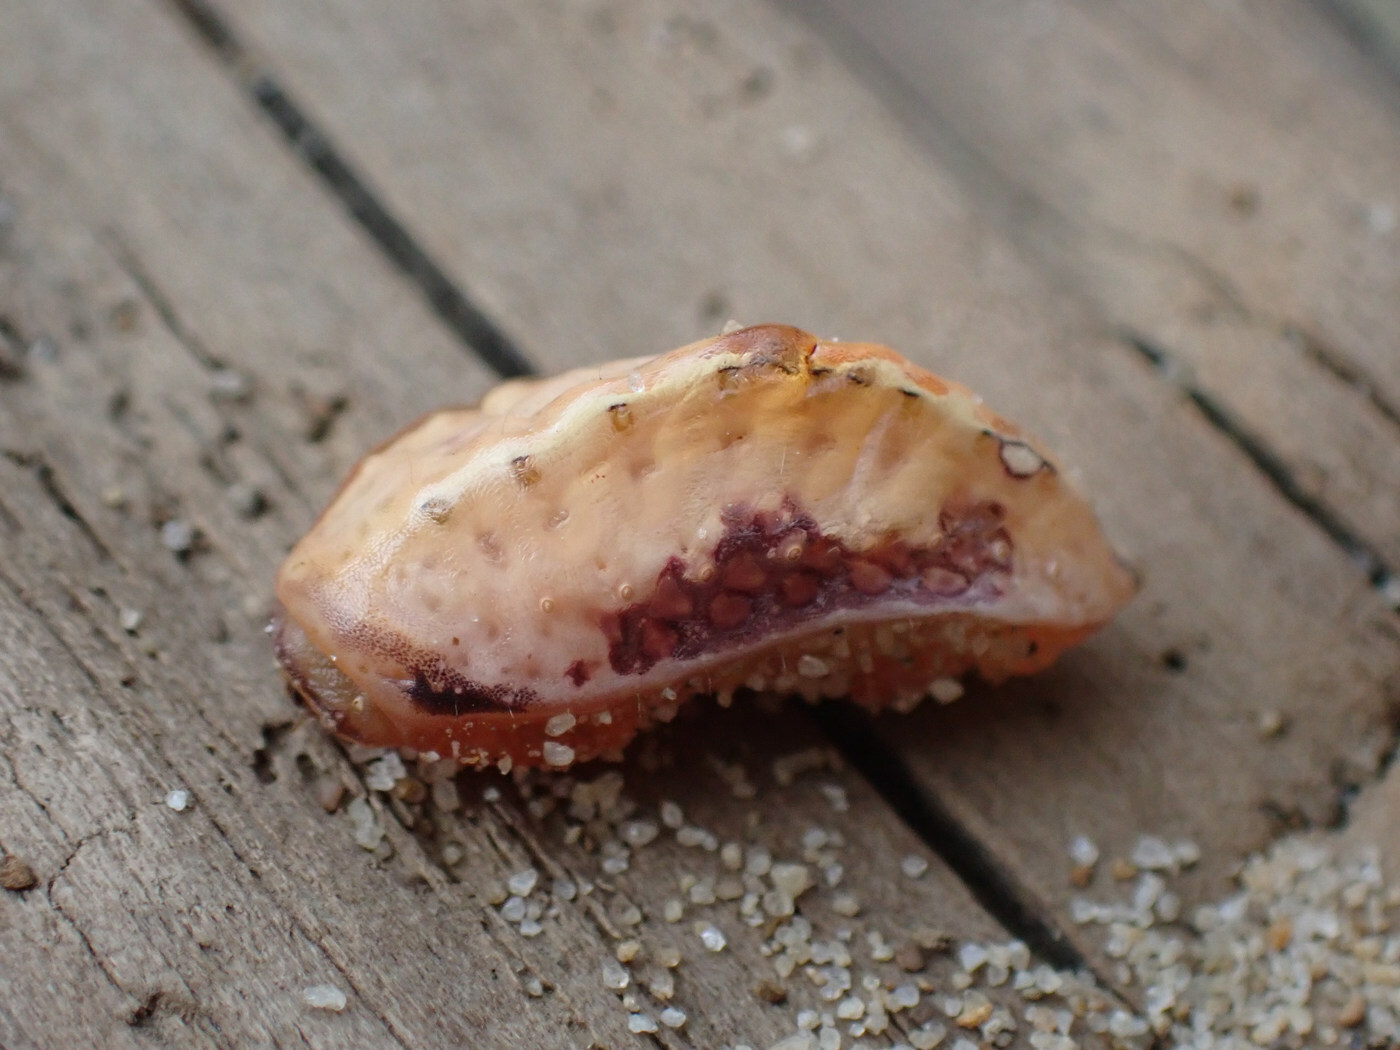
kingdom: Animalia
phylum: Arthropoda
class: Insecta
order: Lepidoptera
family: Limacodidae
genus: Prolimacodes
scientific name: Prolimacodes badia
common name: Skiff moth
